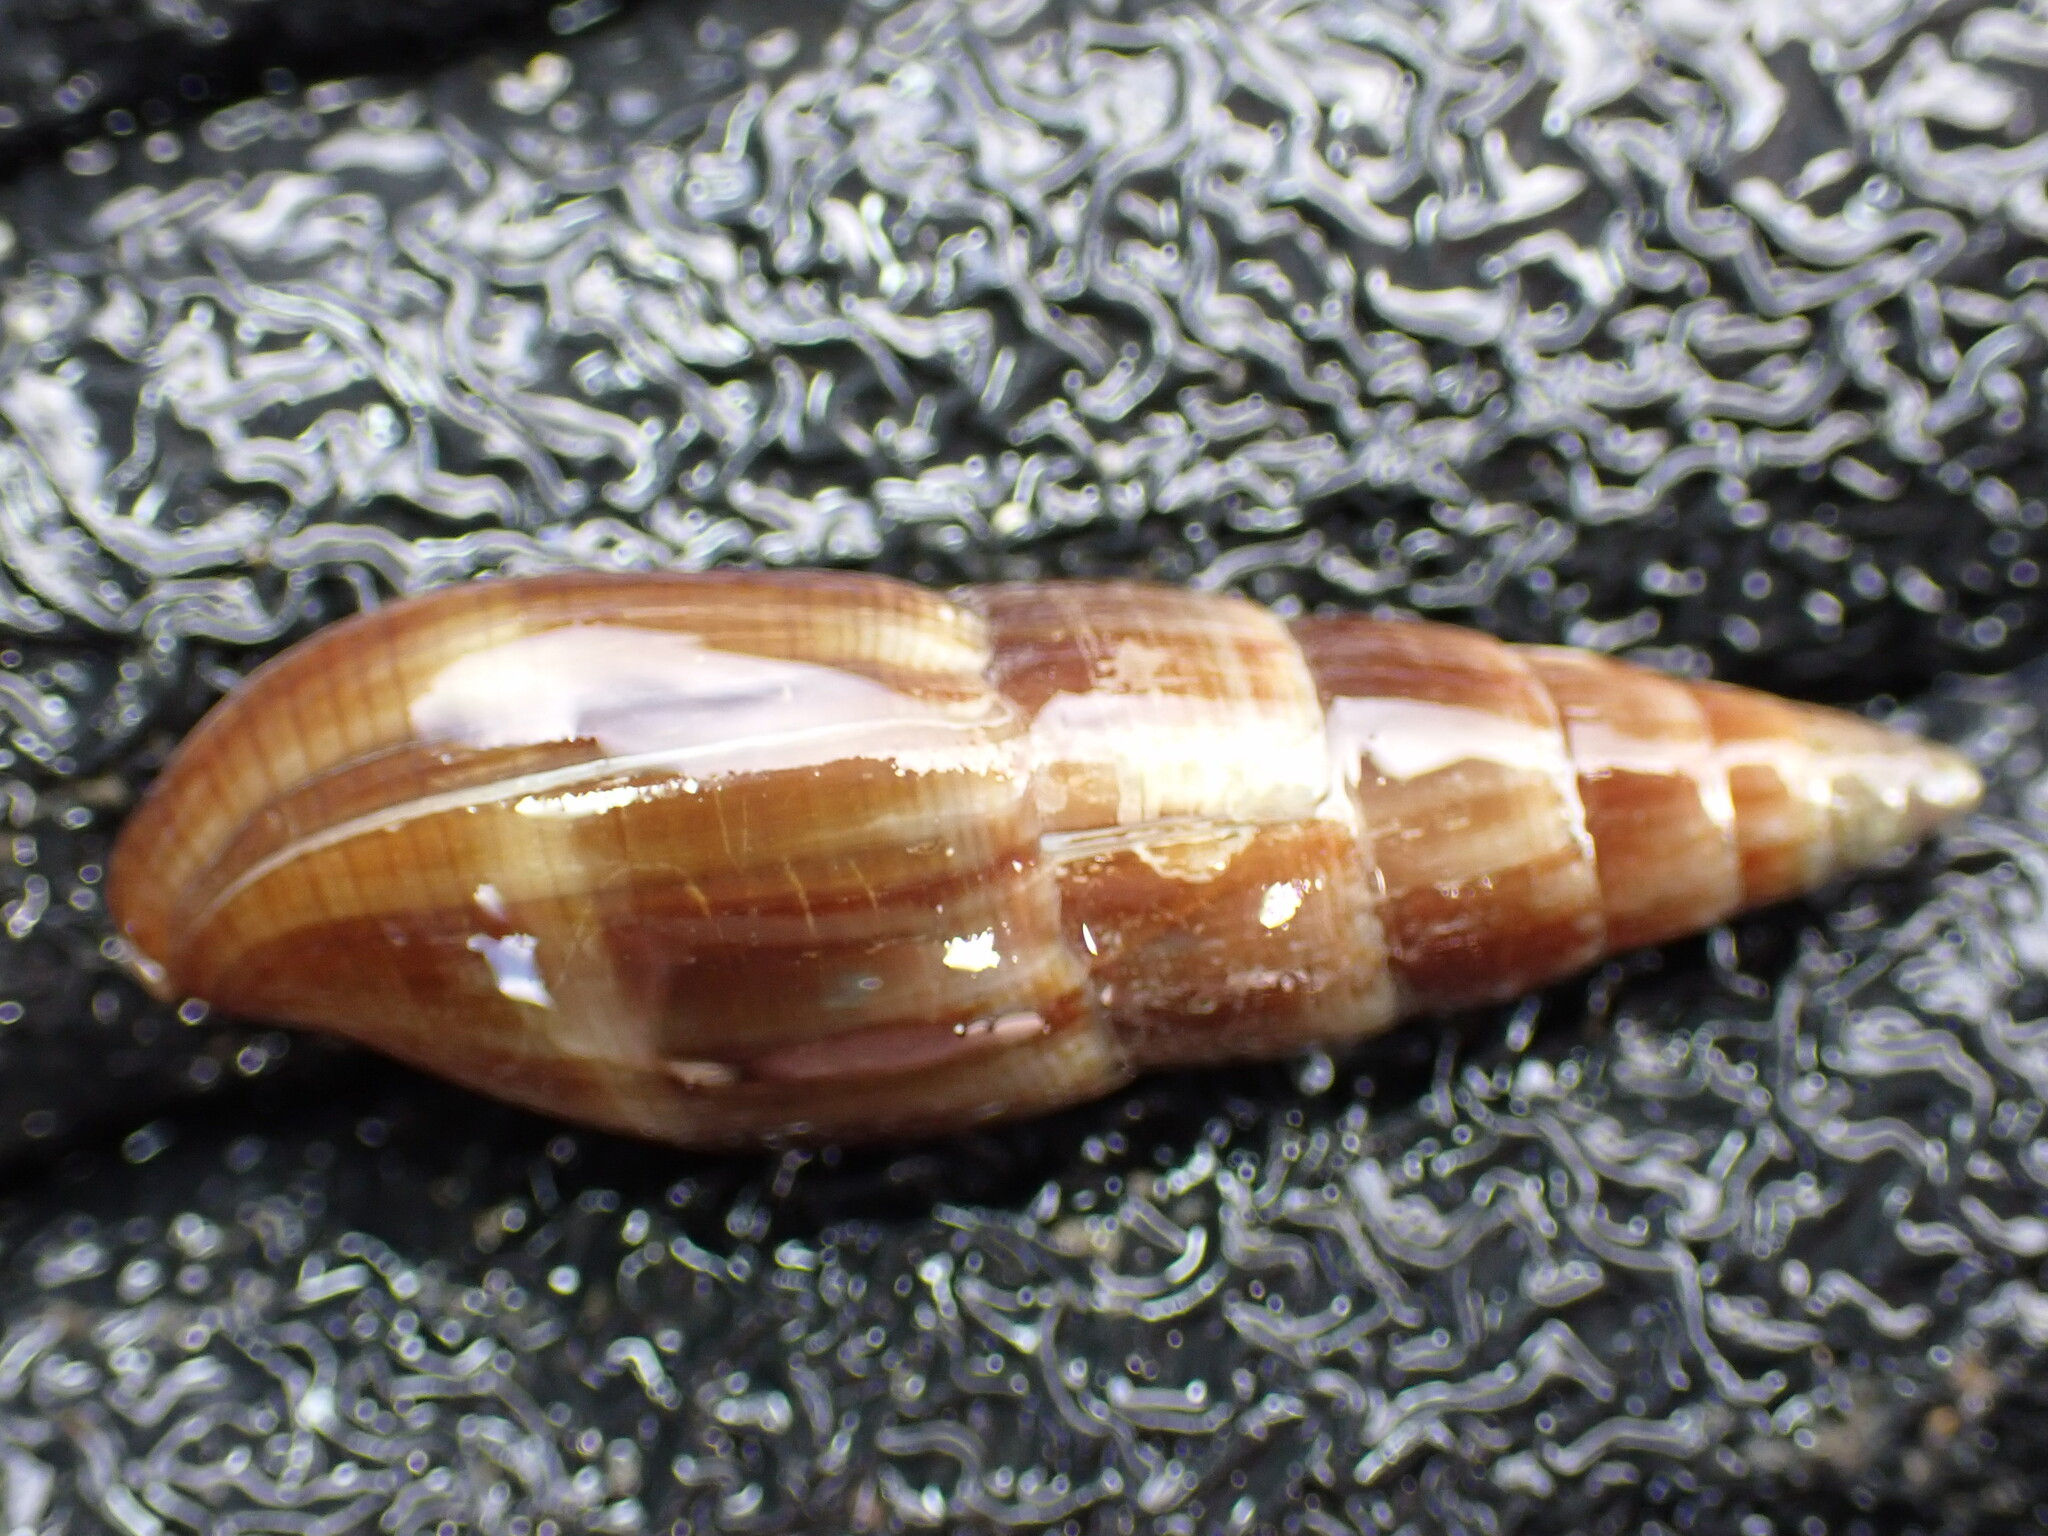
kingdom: Animalia
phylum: Mollusca
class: Gastropoda
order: Neogastropoda
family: Mitridae
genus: Isara
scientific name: Isara cookii
